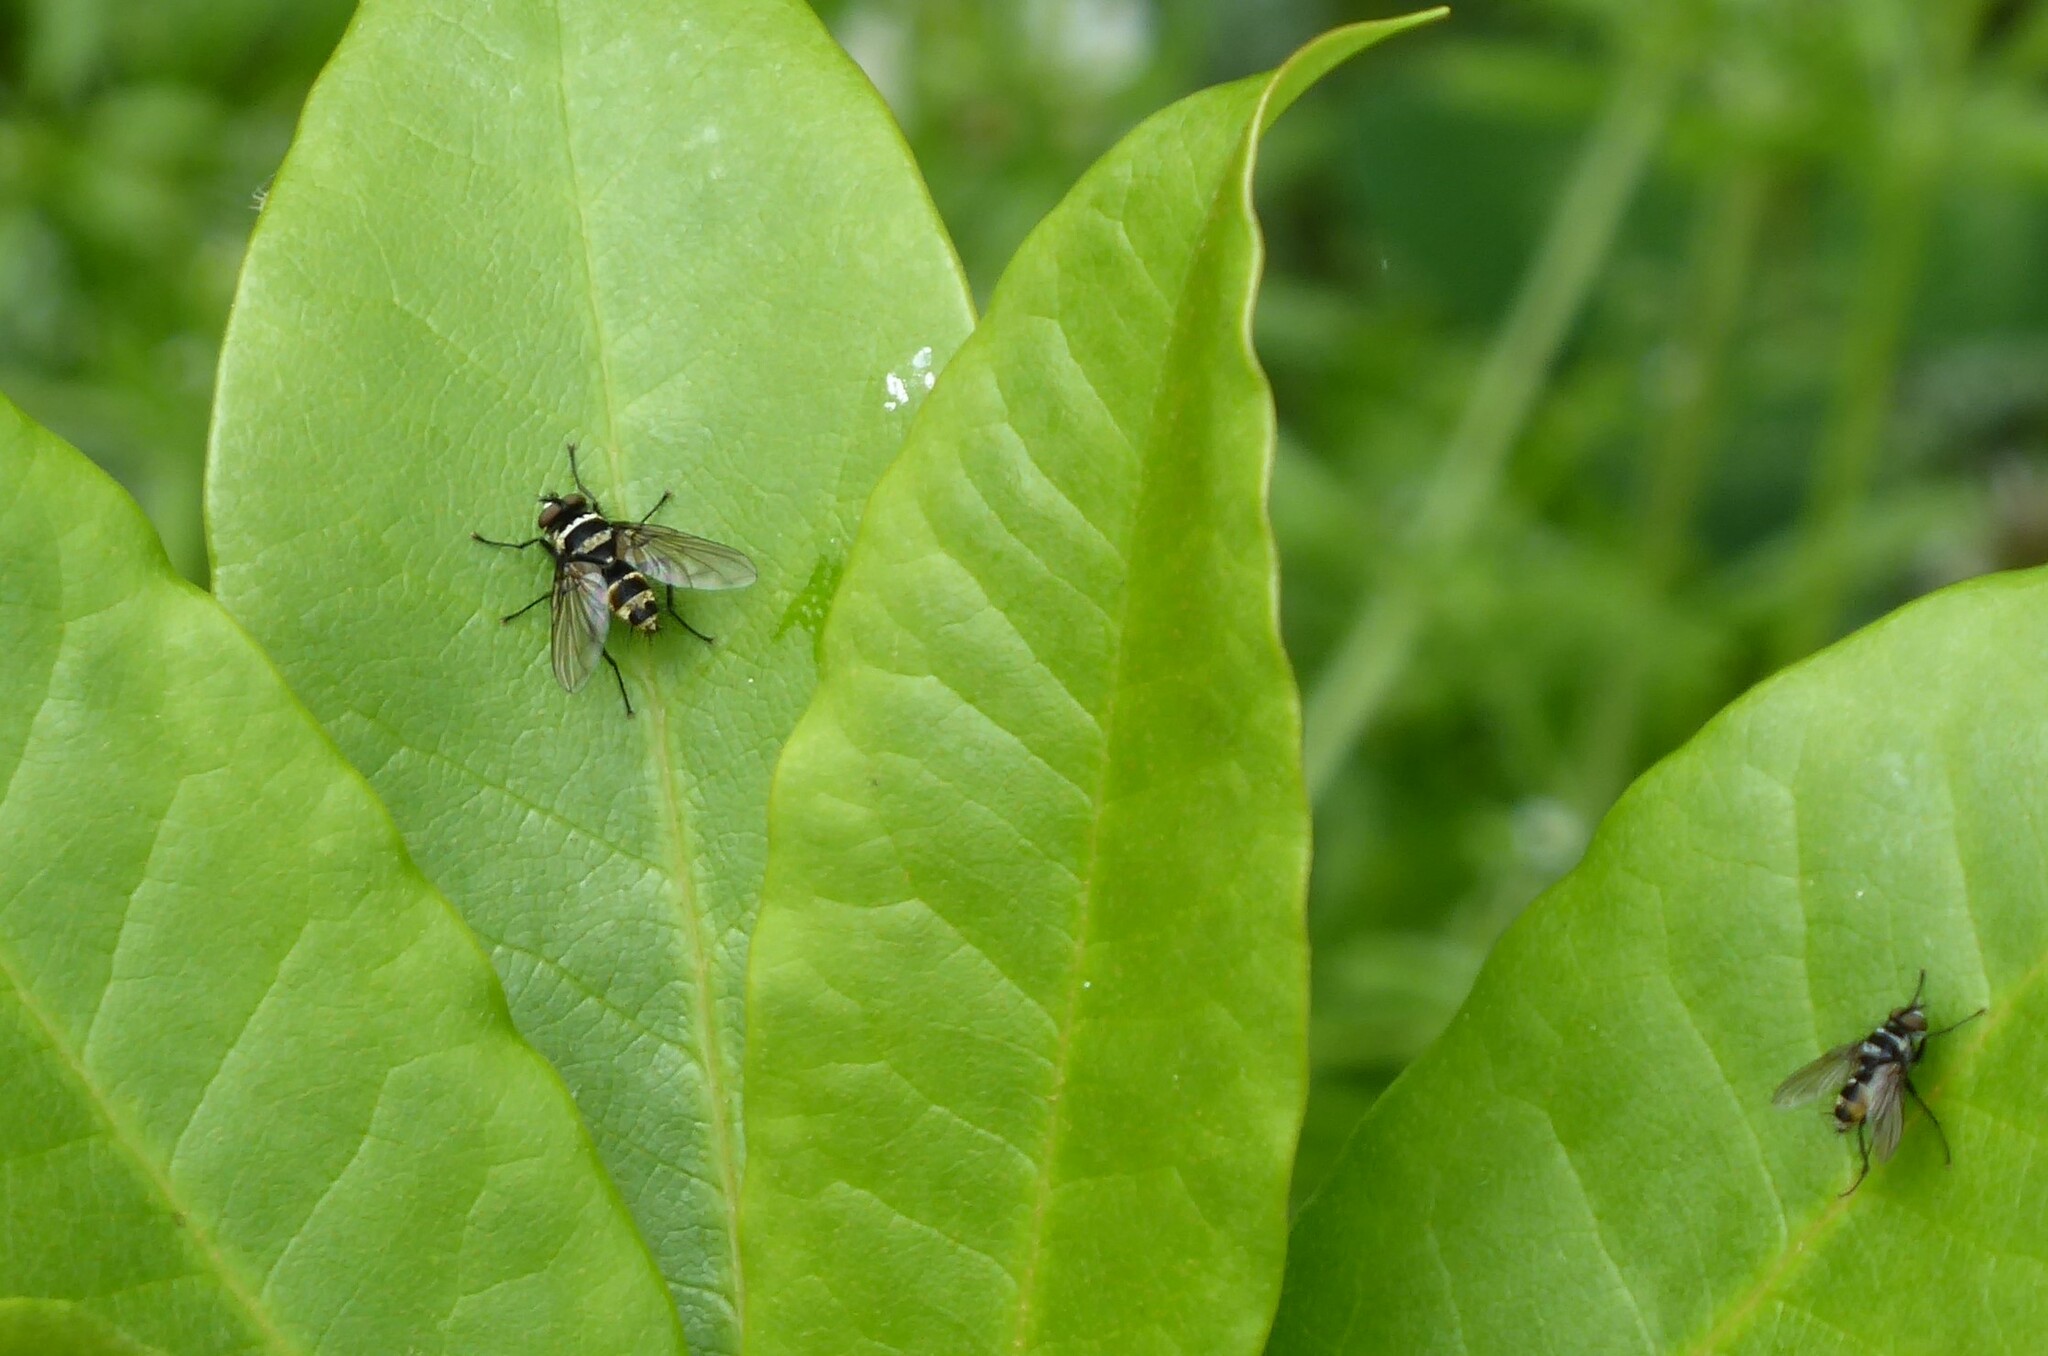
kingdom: Animalia
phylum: Arthropoda
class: Insecta
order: Diptera
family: Tachinidae
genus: Trigonospila
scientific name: Trigonospila brevifacies
